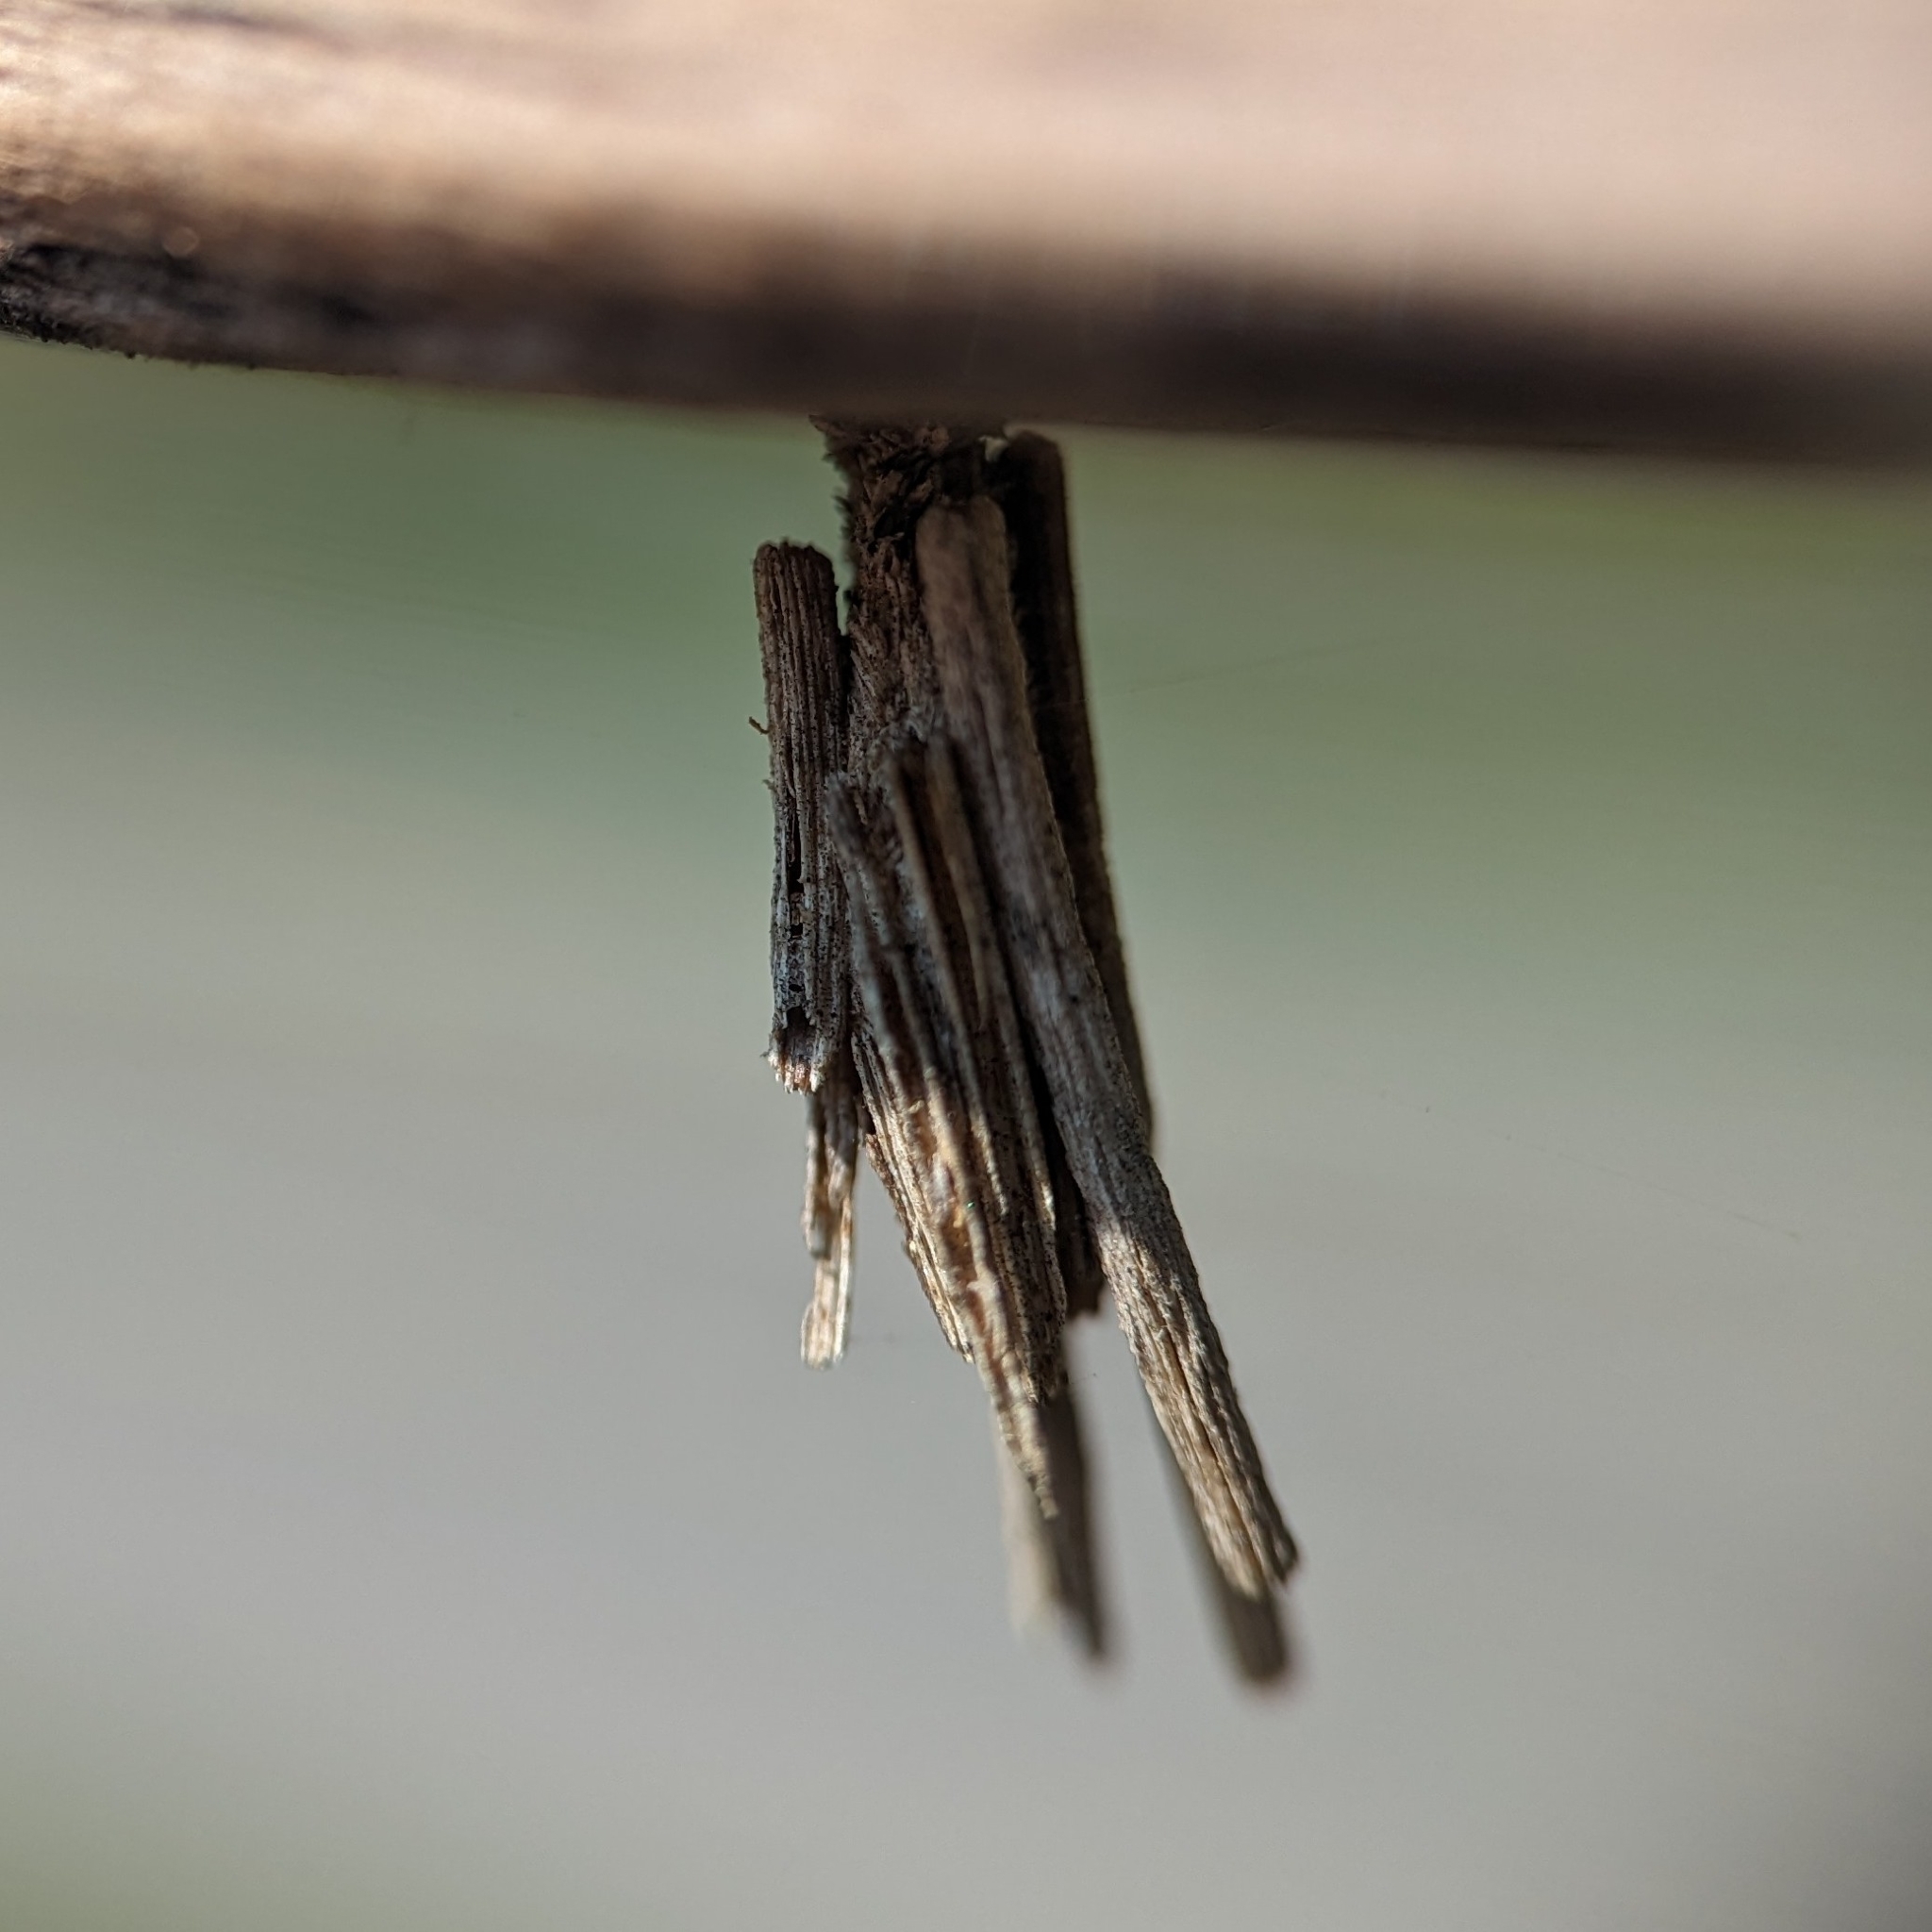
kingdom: Animalia
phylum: Arthropoda
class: Insecta
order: Lepidoptera
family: Psychidae
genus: Psyche
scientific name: Psyche casta
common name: Common sweep
